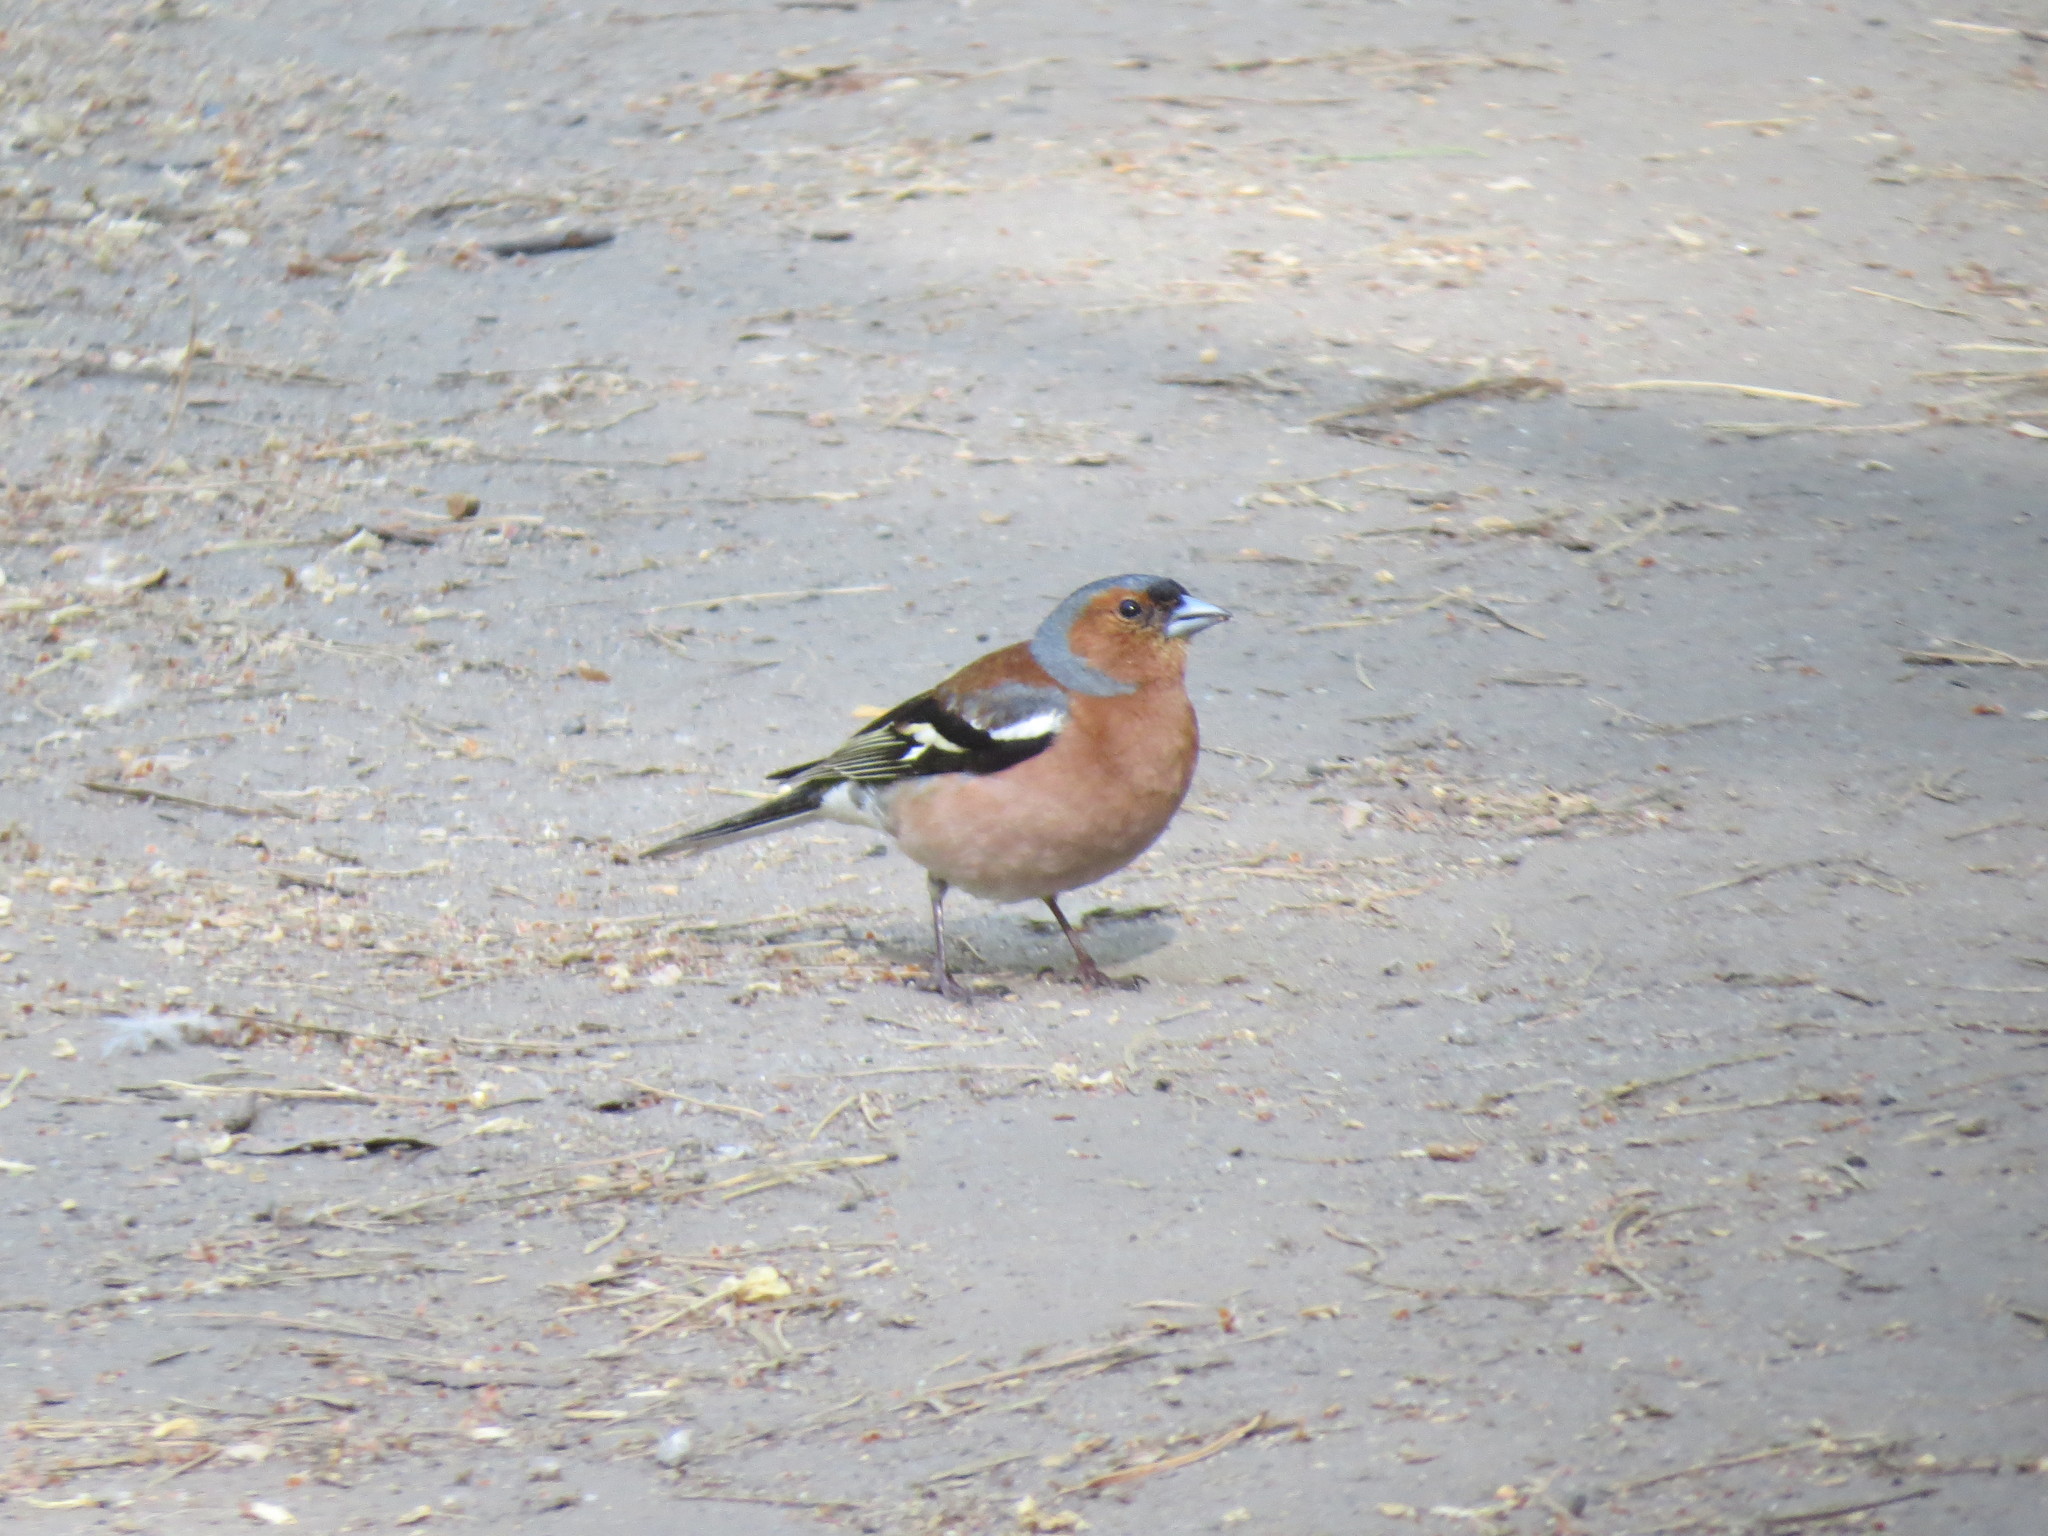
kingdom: Animalia
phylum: Chordata
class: Aves
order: Passeriformes
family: Fringillidae
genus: Fringilla
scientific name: Fringilla coelebs
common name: Common chaffinch
